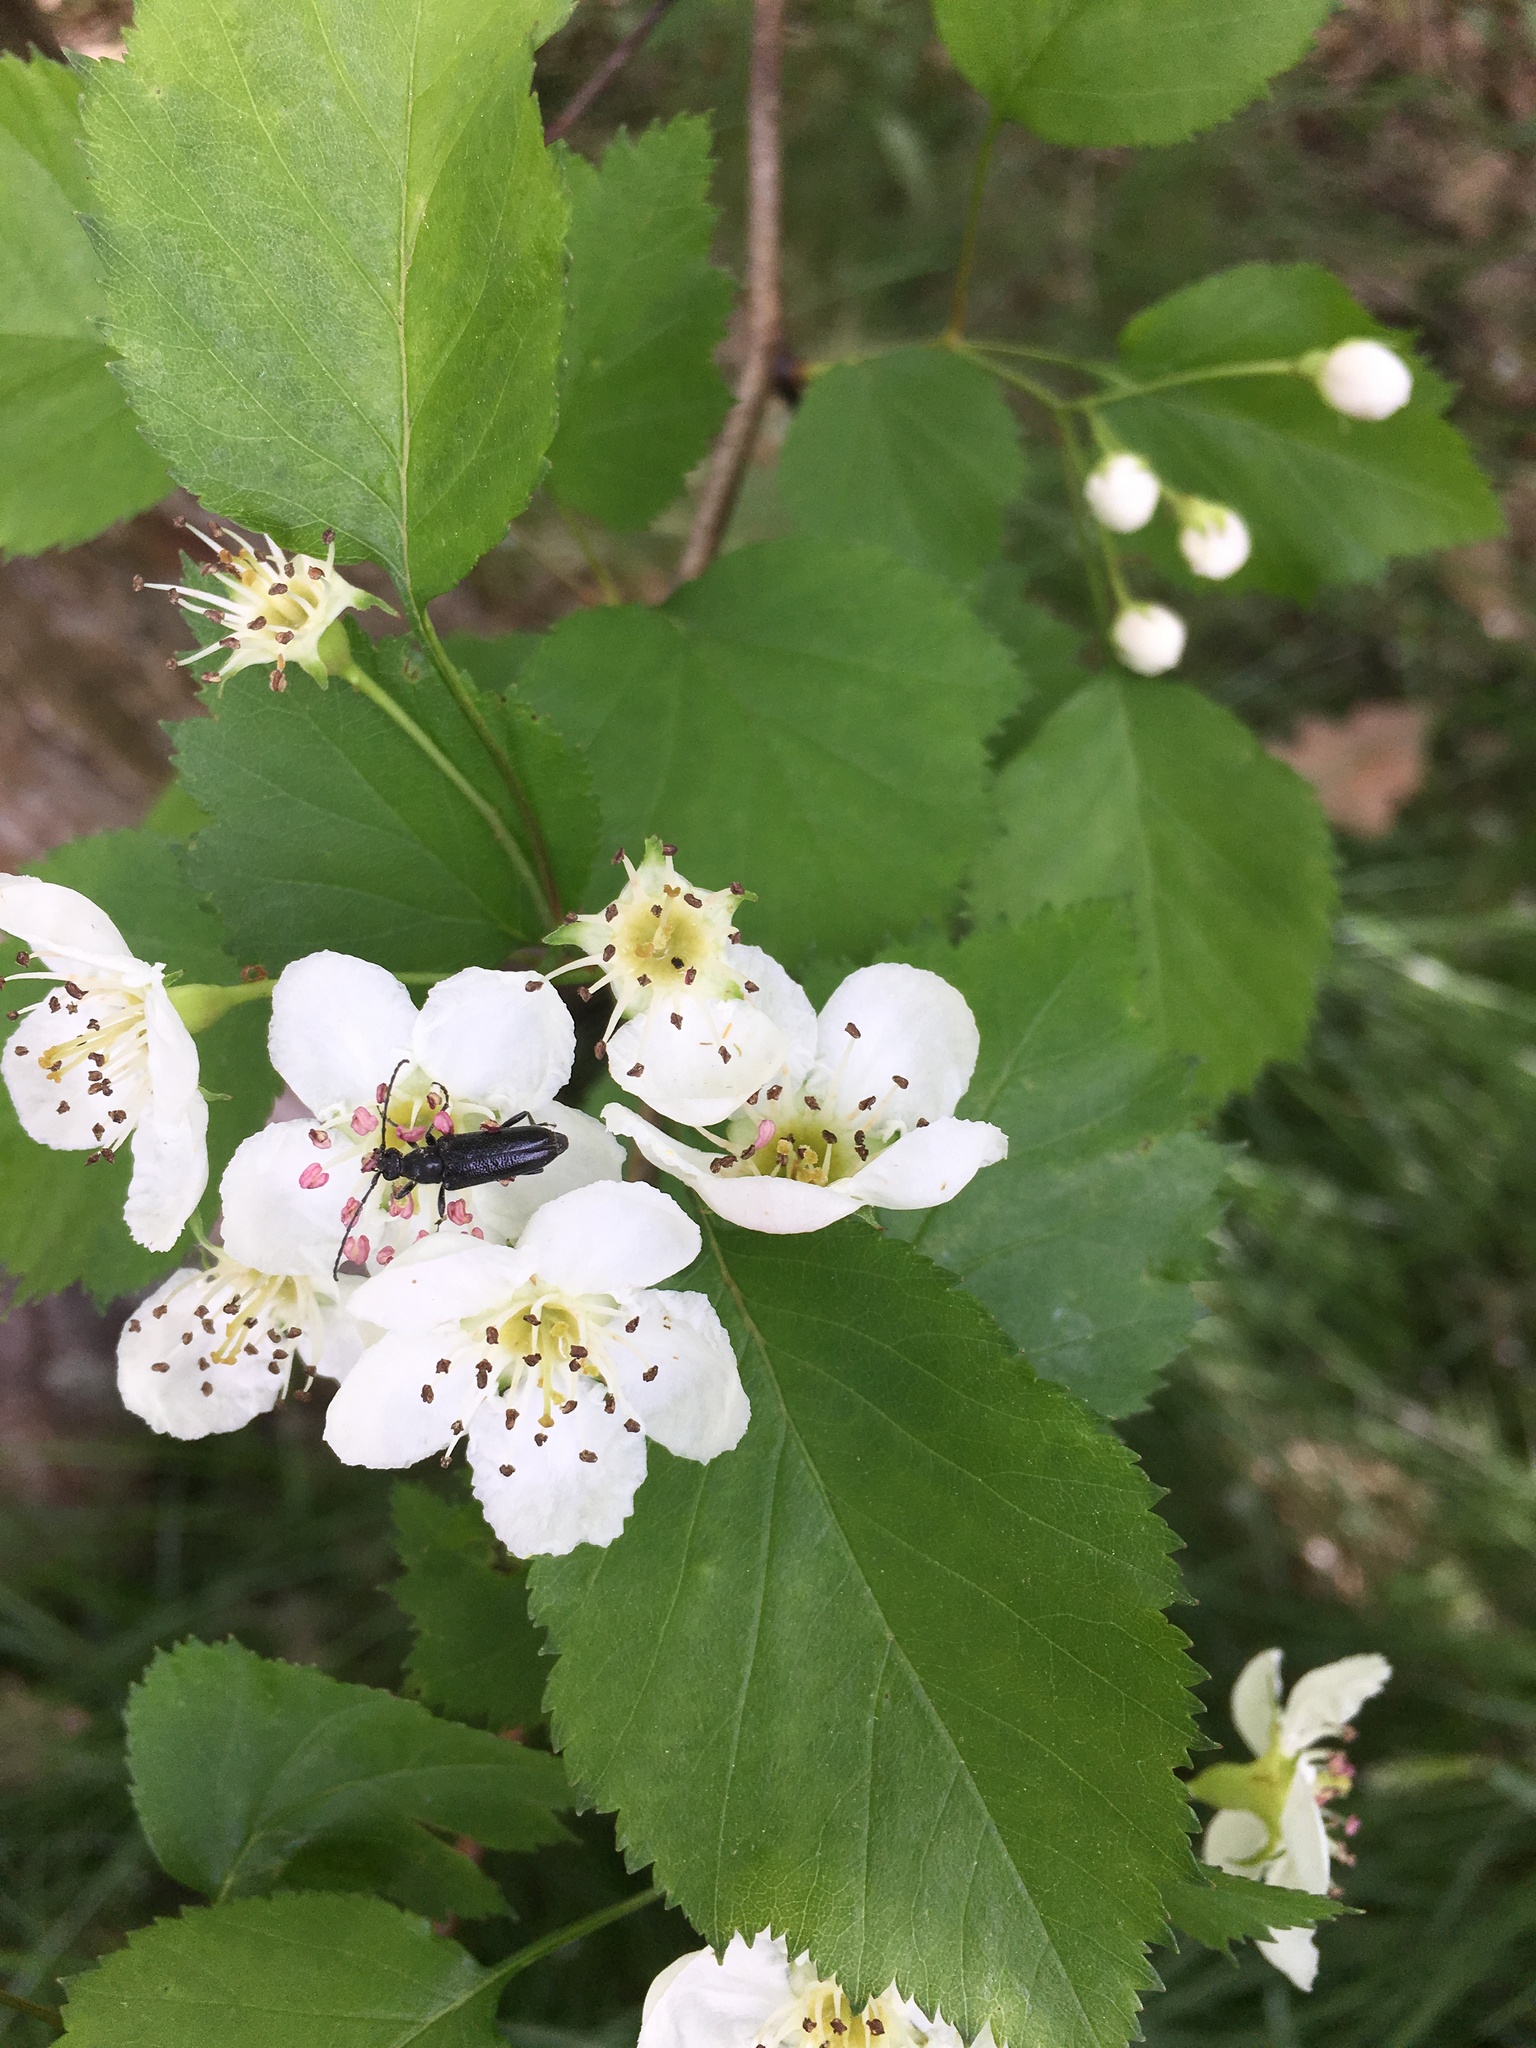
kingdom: Plantae
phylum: Tracheophyta
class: Magnoliopsida
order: Rosales
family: Rosaceae
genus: Crataegus
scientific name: Crataegus pruinosa
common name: Waxy-fruit hawthorn
